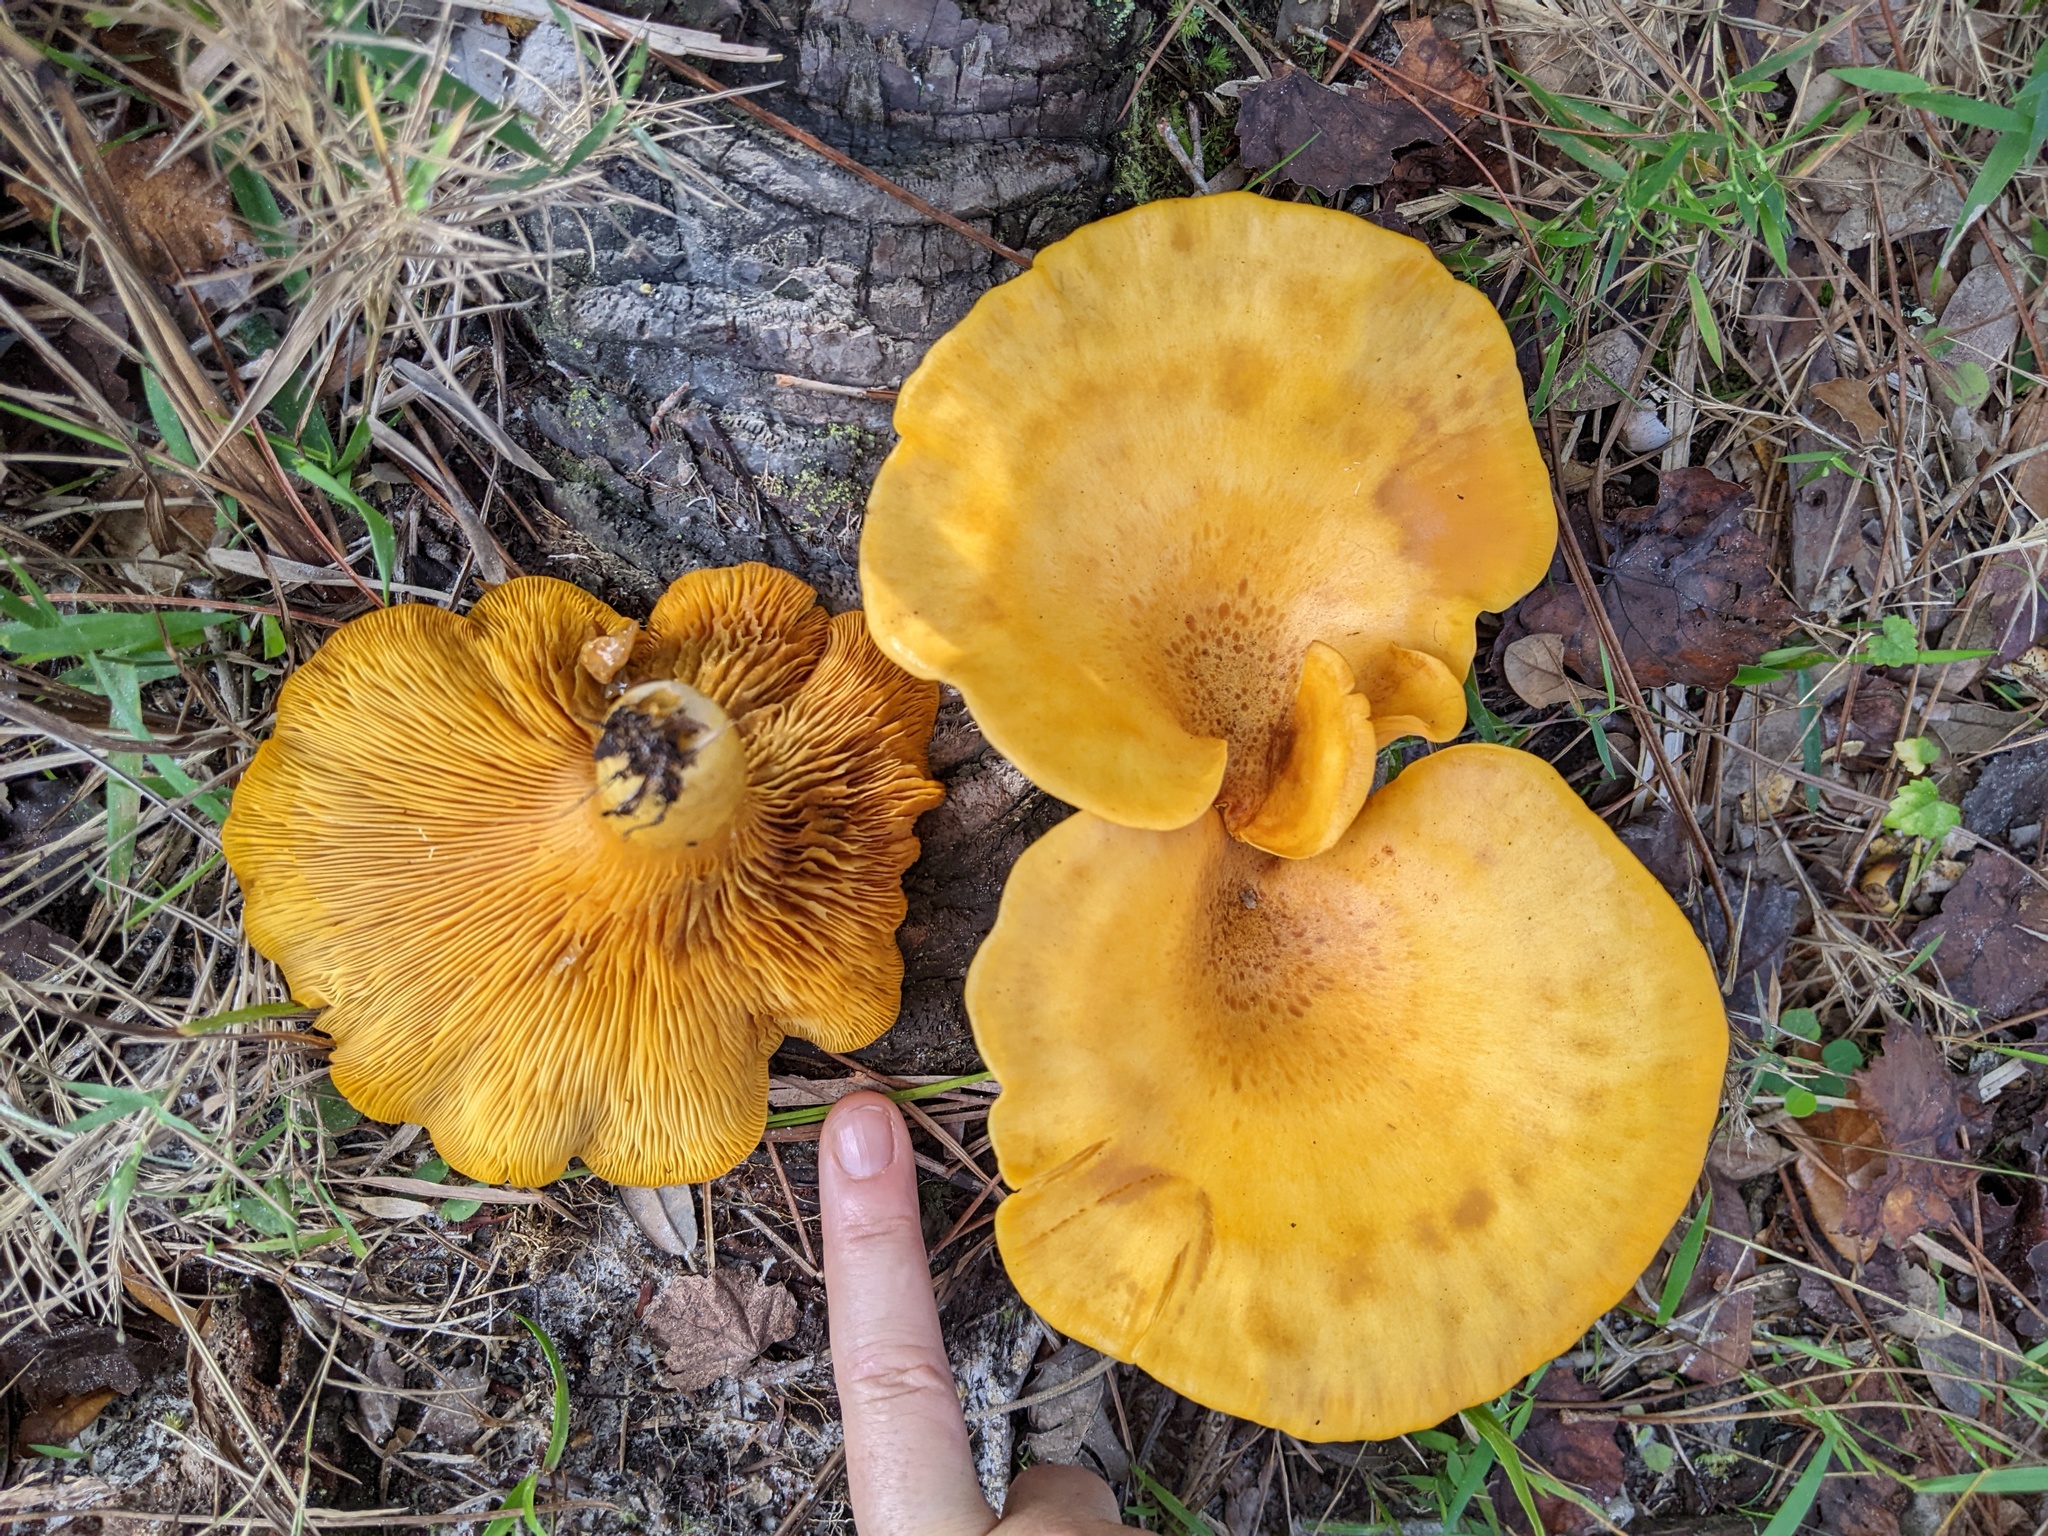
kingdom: Fungi
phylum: Basidiomycota
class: Agaricomycetes
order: Agaricales
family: Omphalotaceae
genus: Omphalotus
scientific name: Omphalotus subilludens
